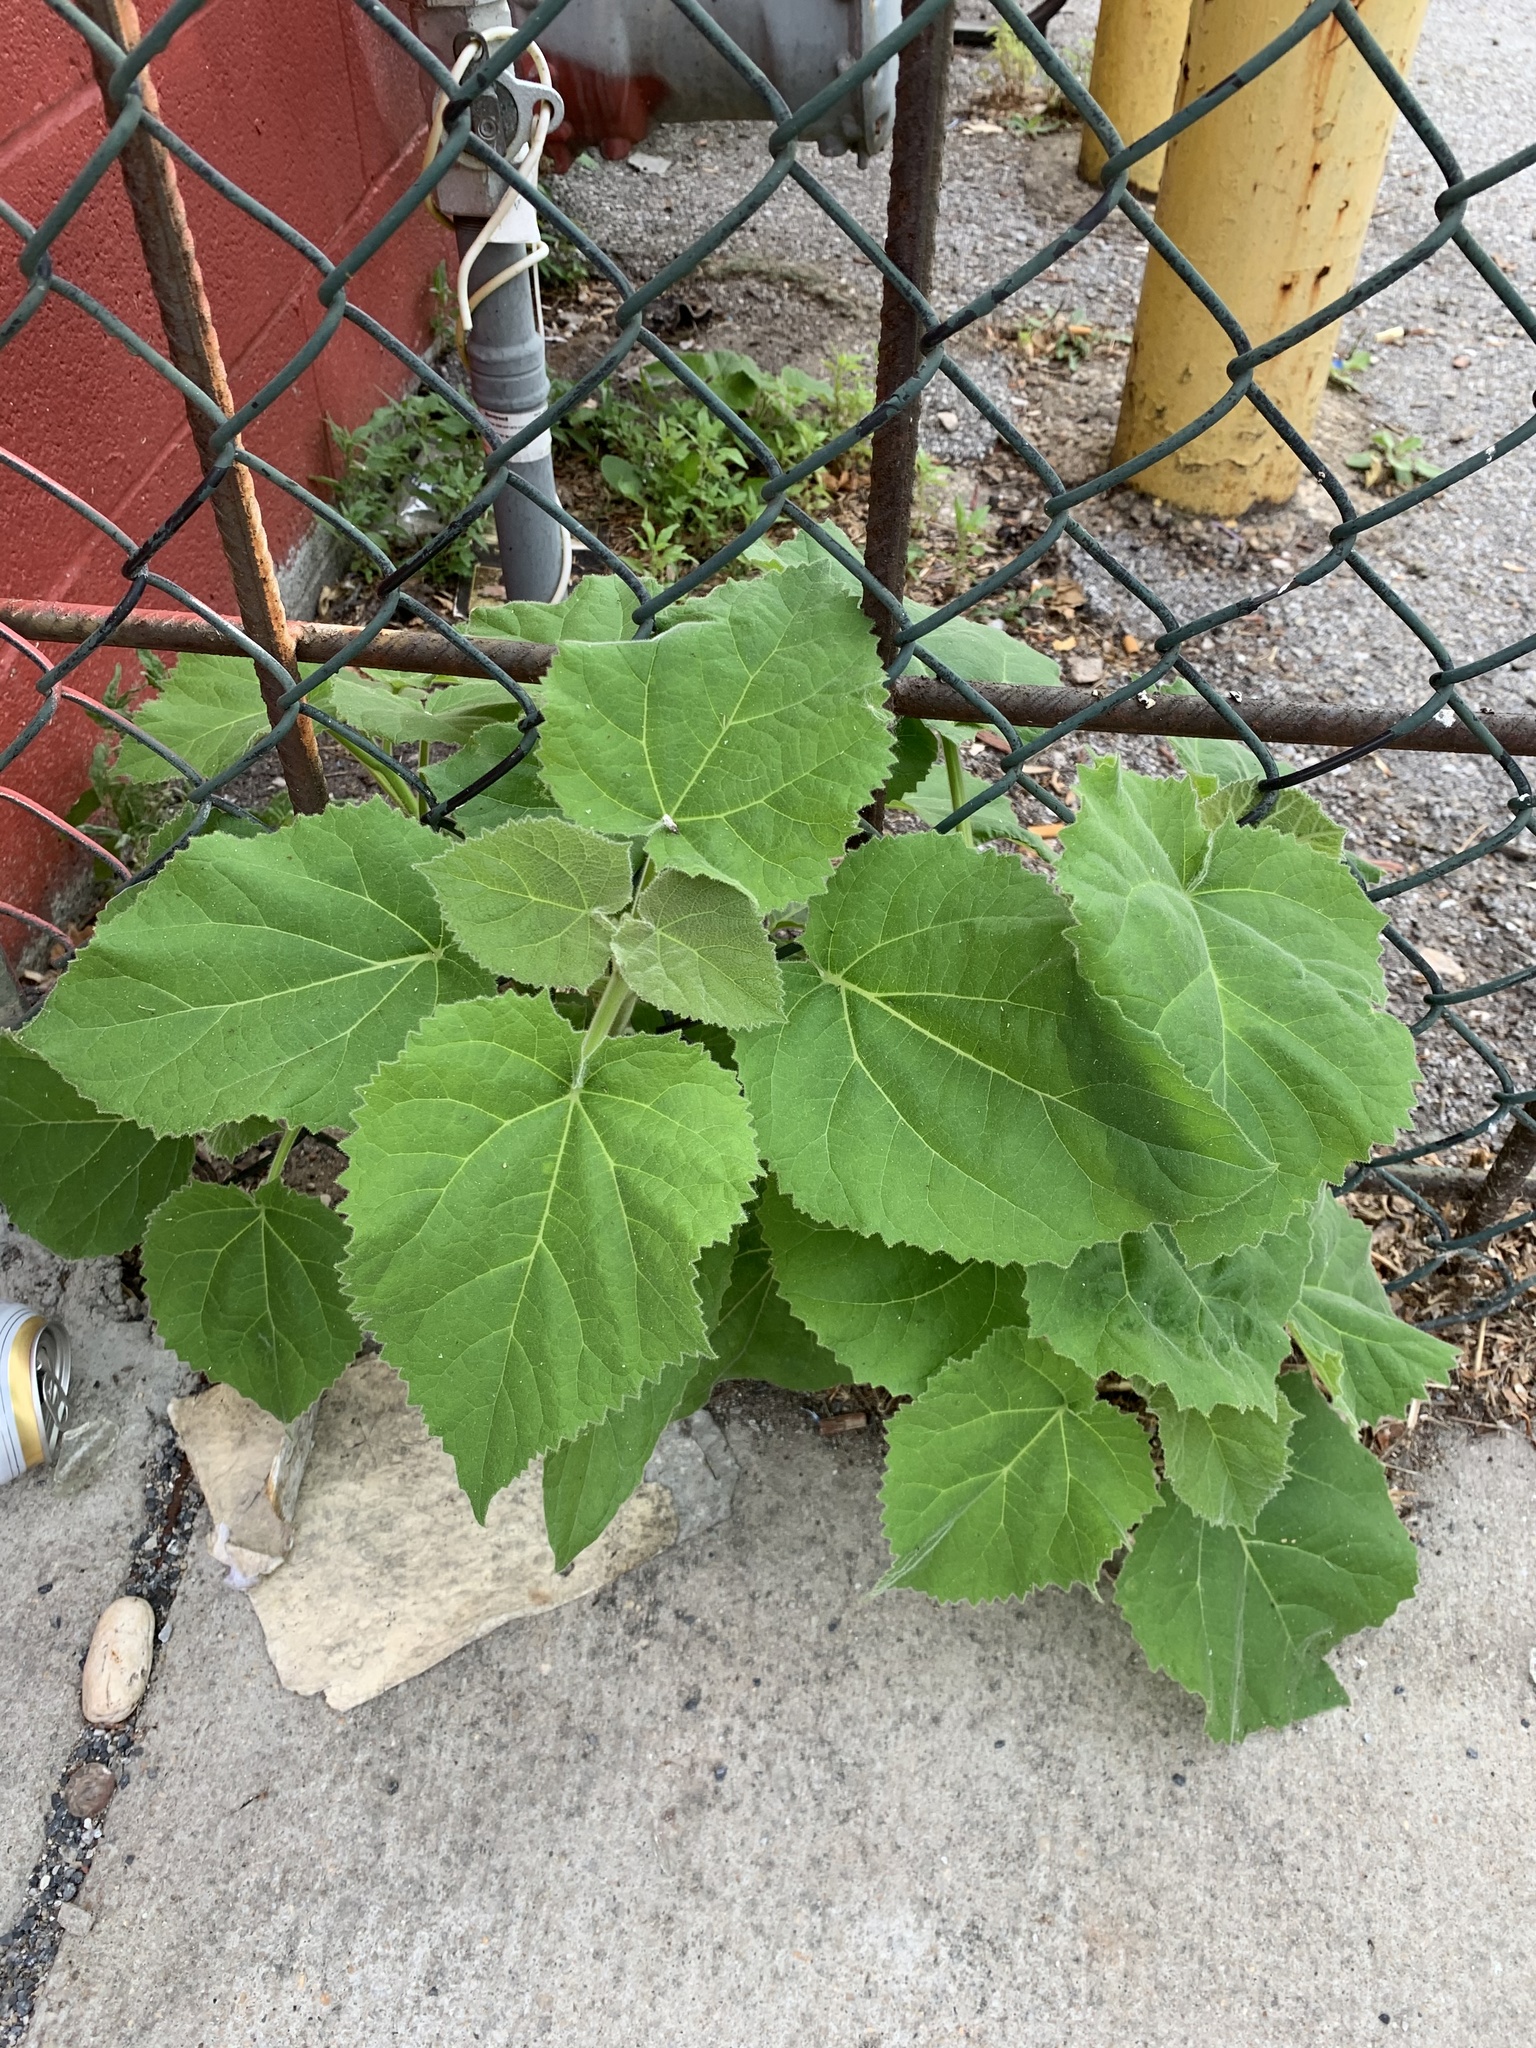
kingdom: Plantae
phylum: Tracheophyta
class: Magnoliopsida
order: Lamiales
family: Paulowniaceae
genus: Paulownia
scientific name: Paulownia tomentosa
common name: Foxglove-tree
